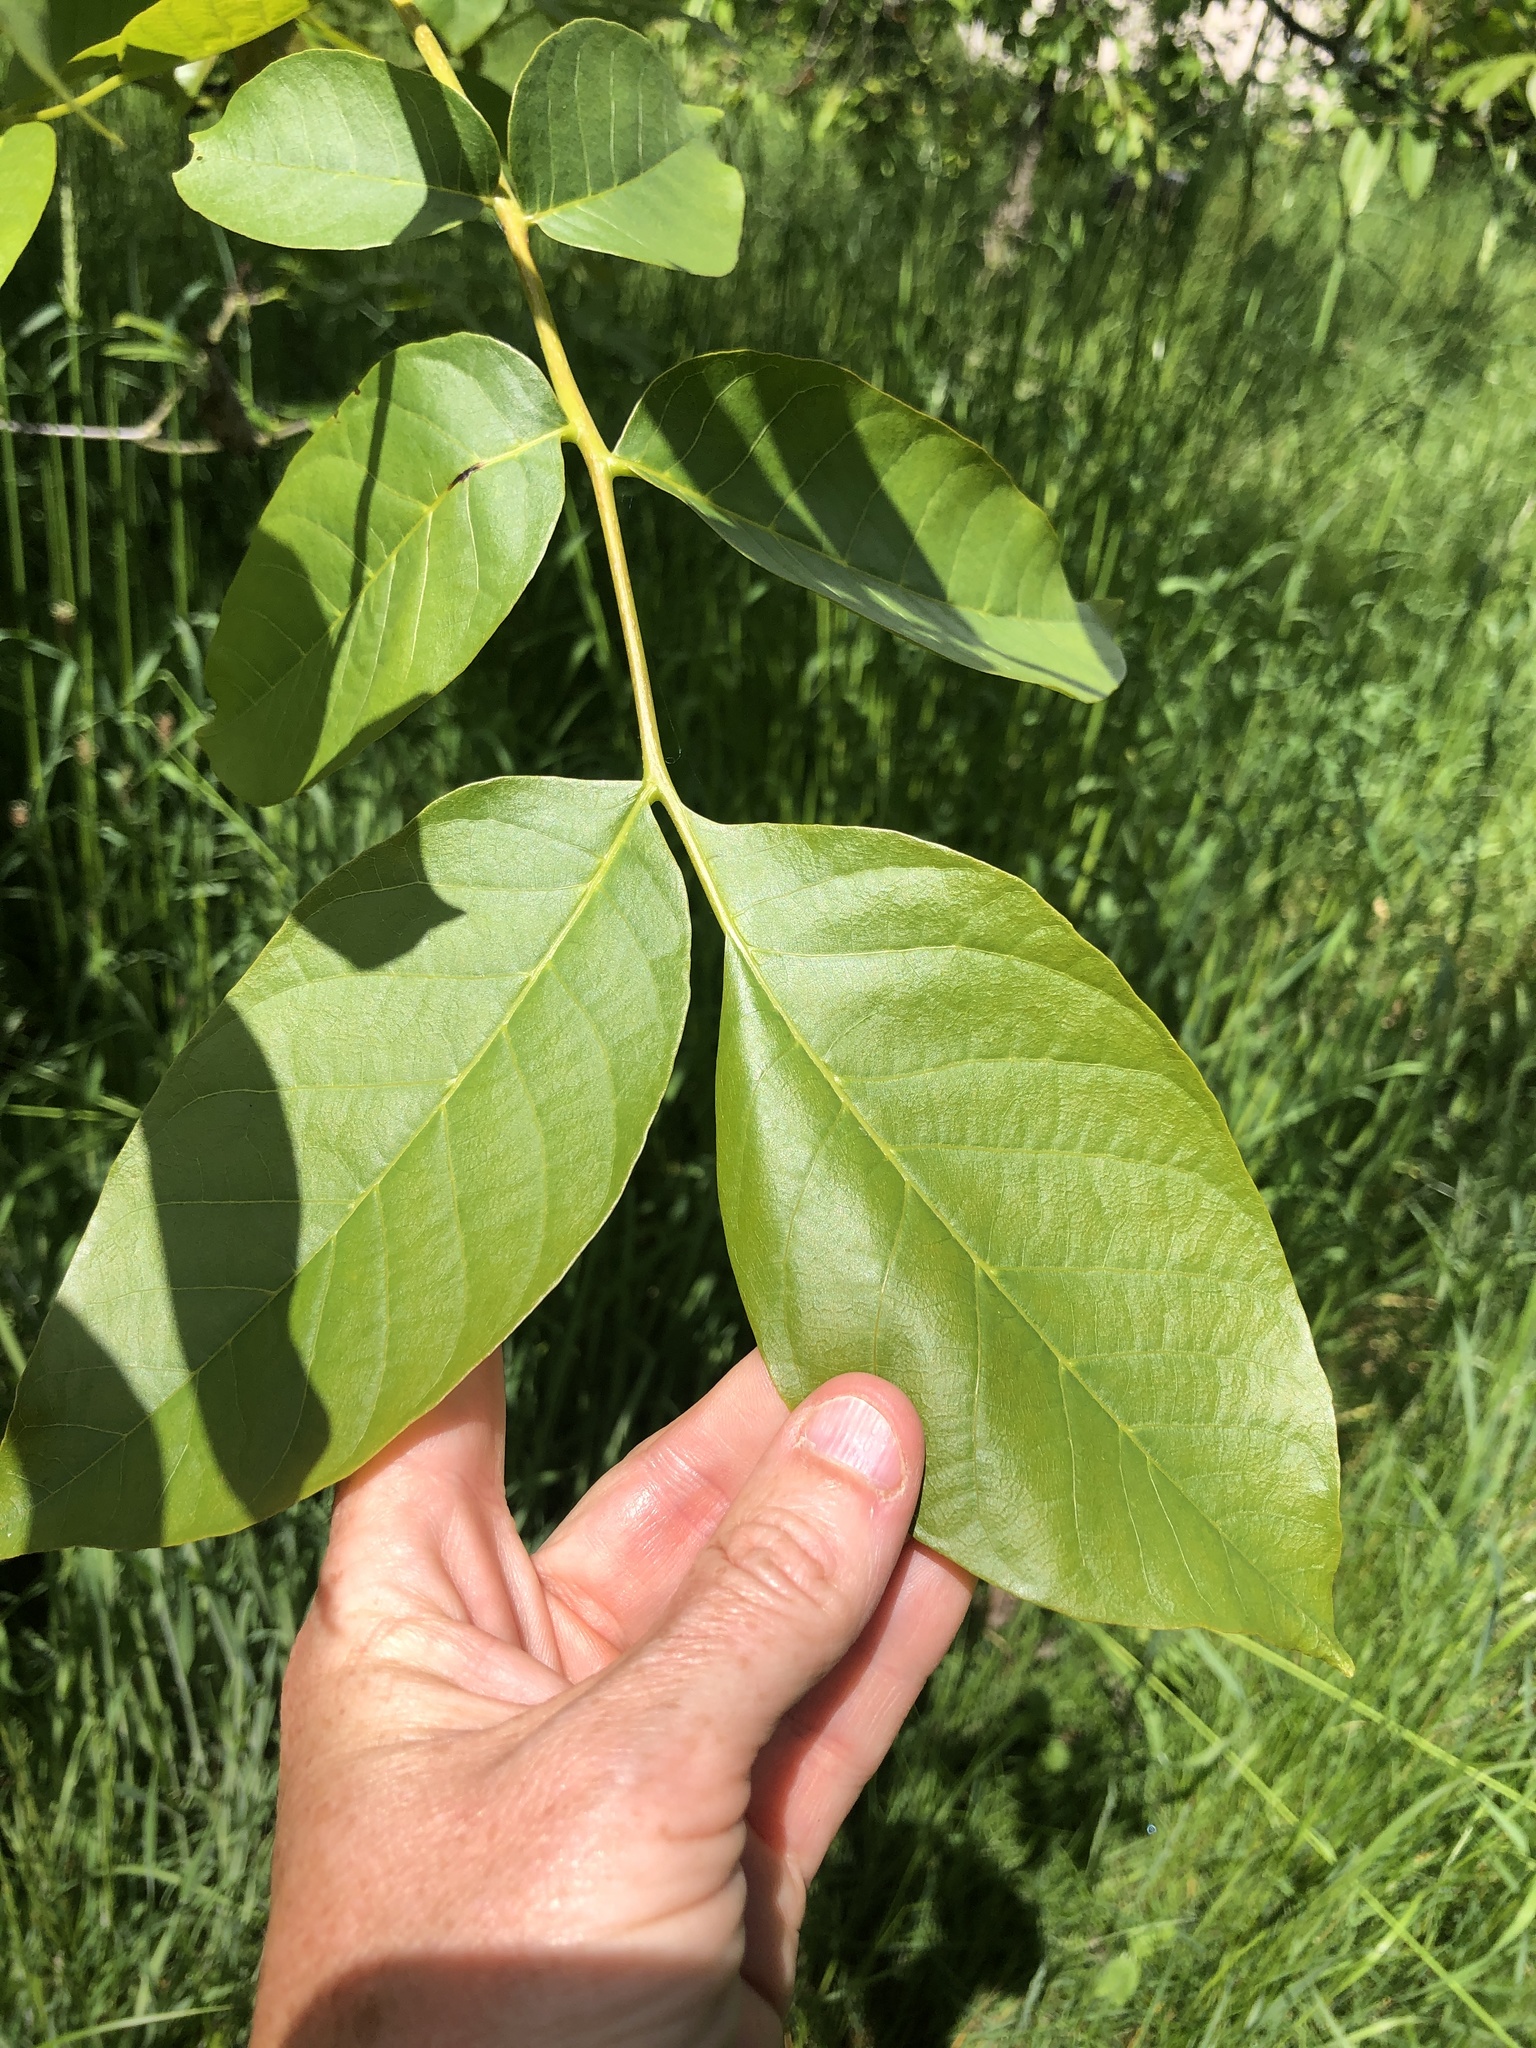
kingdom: Plantae
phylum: Tracheophyta
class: Magnoliopsida
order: Fagales
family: Juglandaceae
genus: Juglans
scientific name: Juglans regia
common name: Walnut
